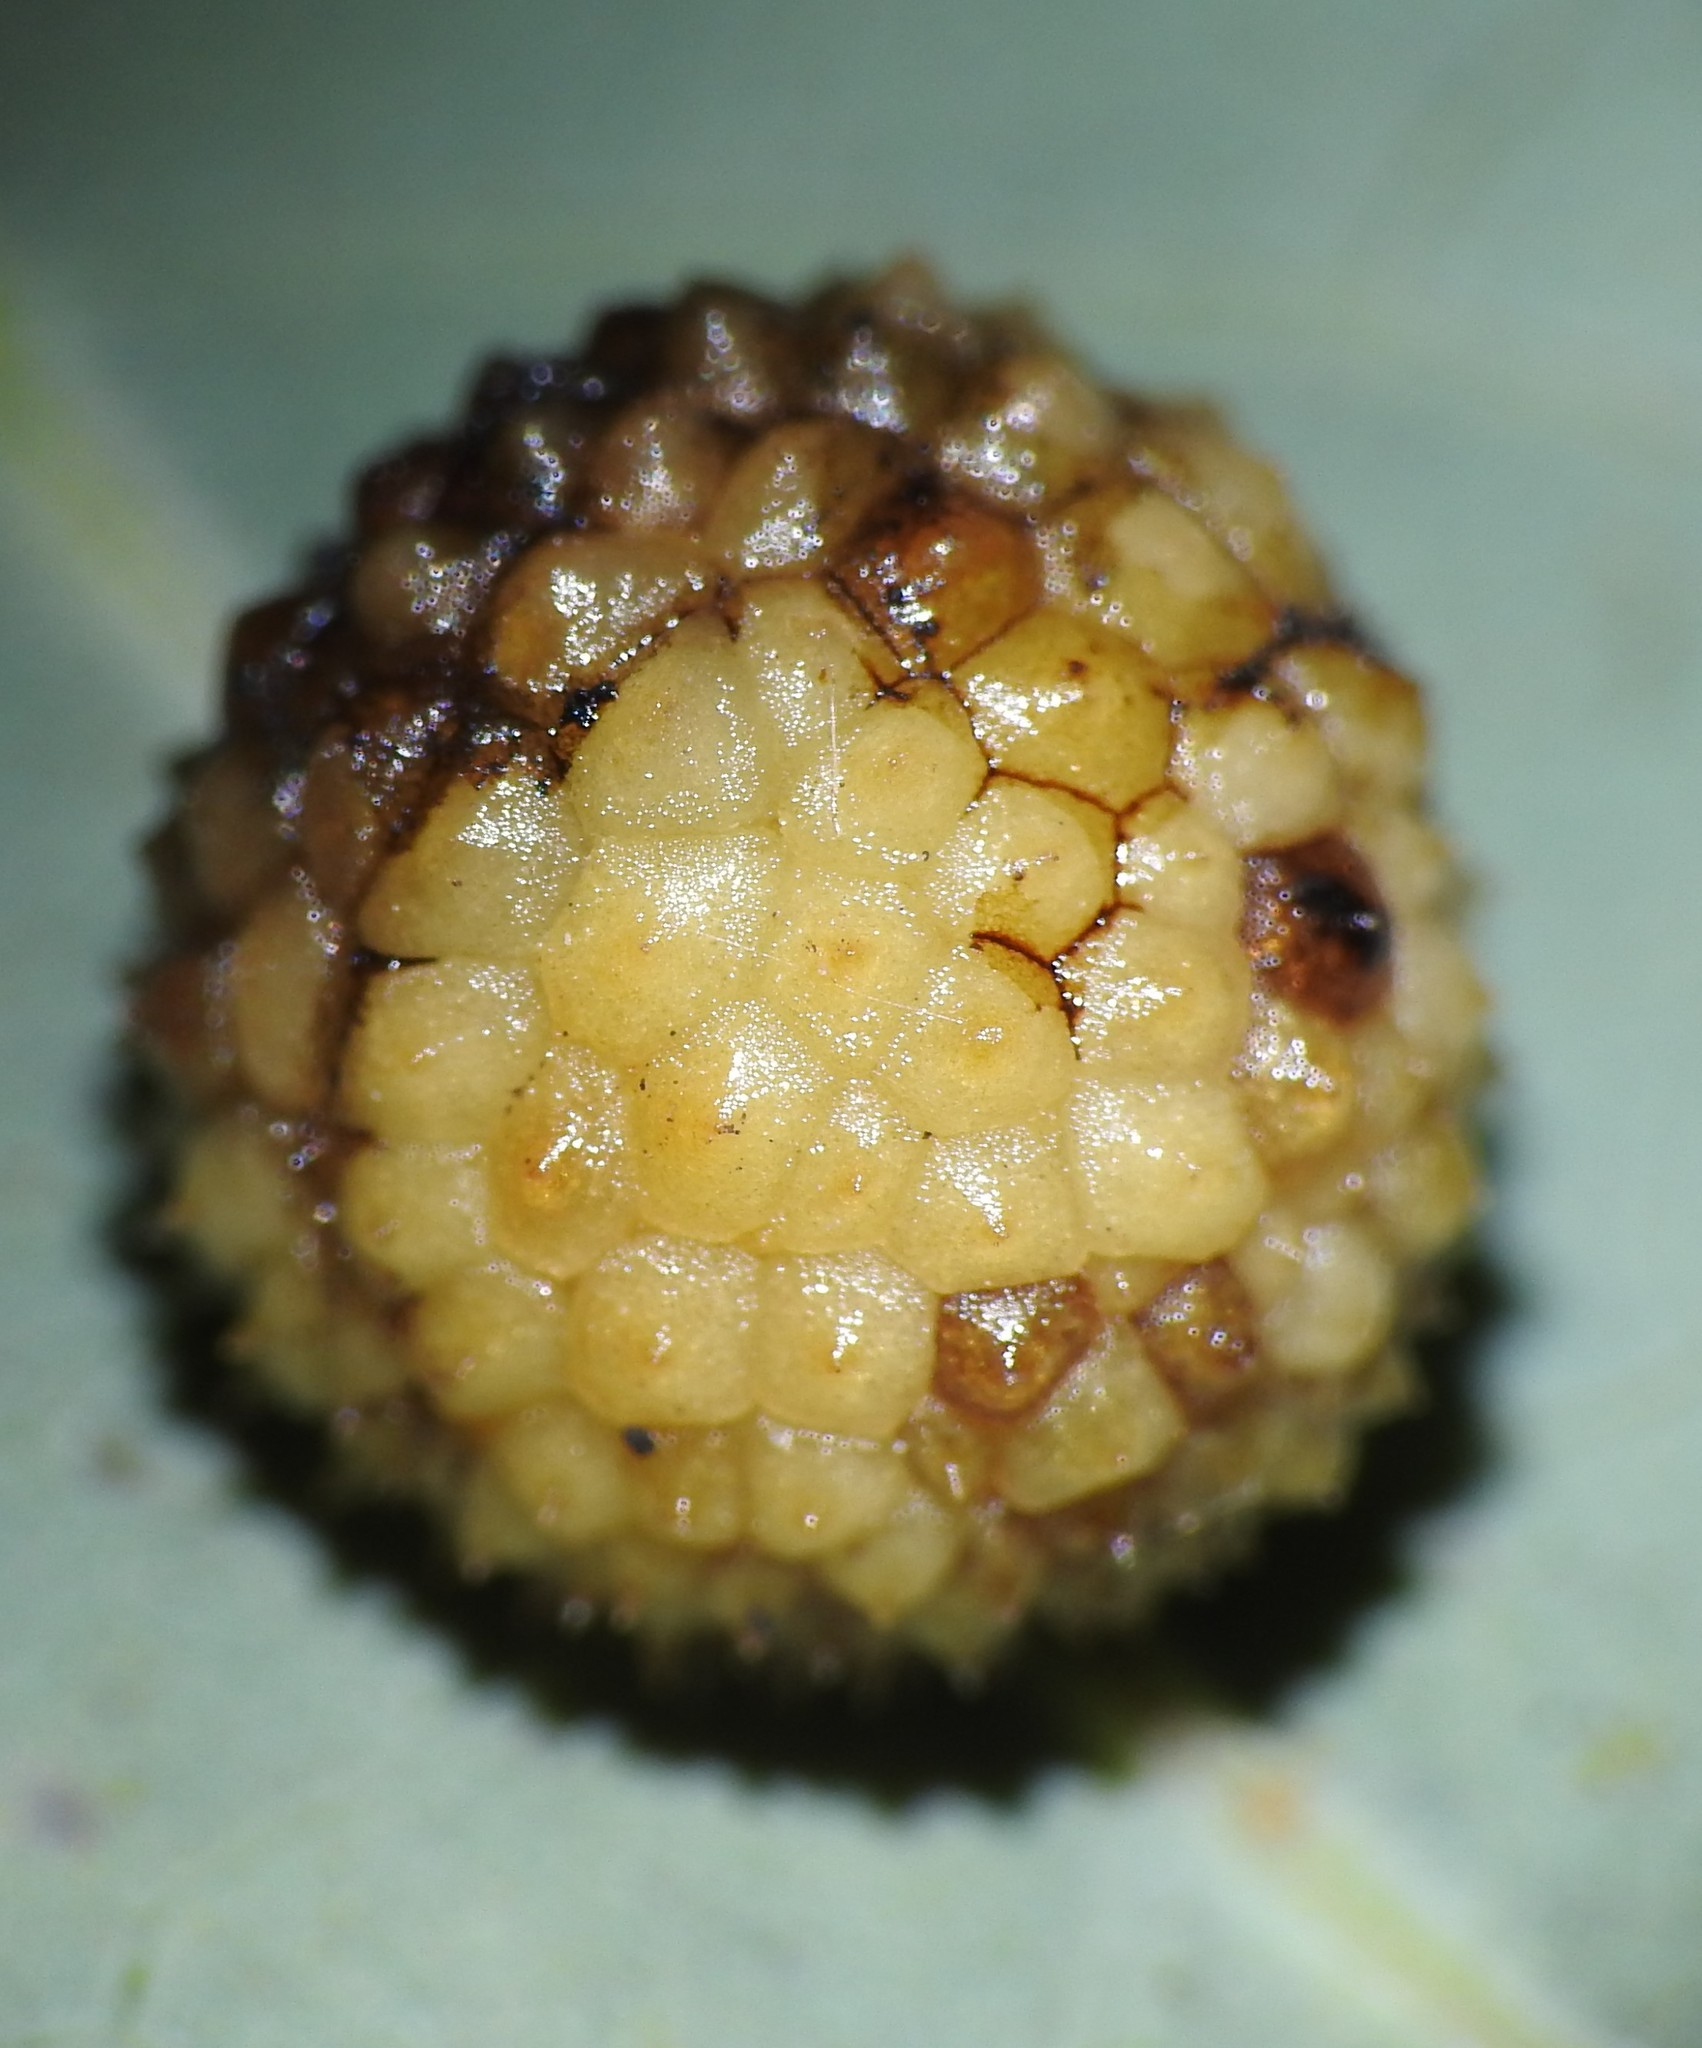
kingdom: Animalia
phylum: Arthropoda
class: Insecta
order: Hymenoptera
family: Cynipidae
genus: Acraspis
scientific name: Acraspis
